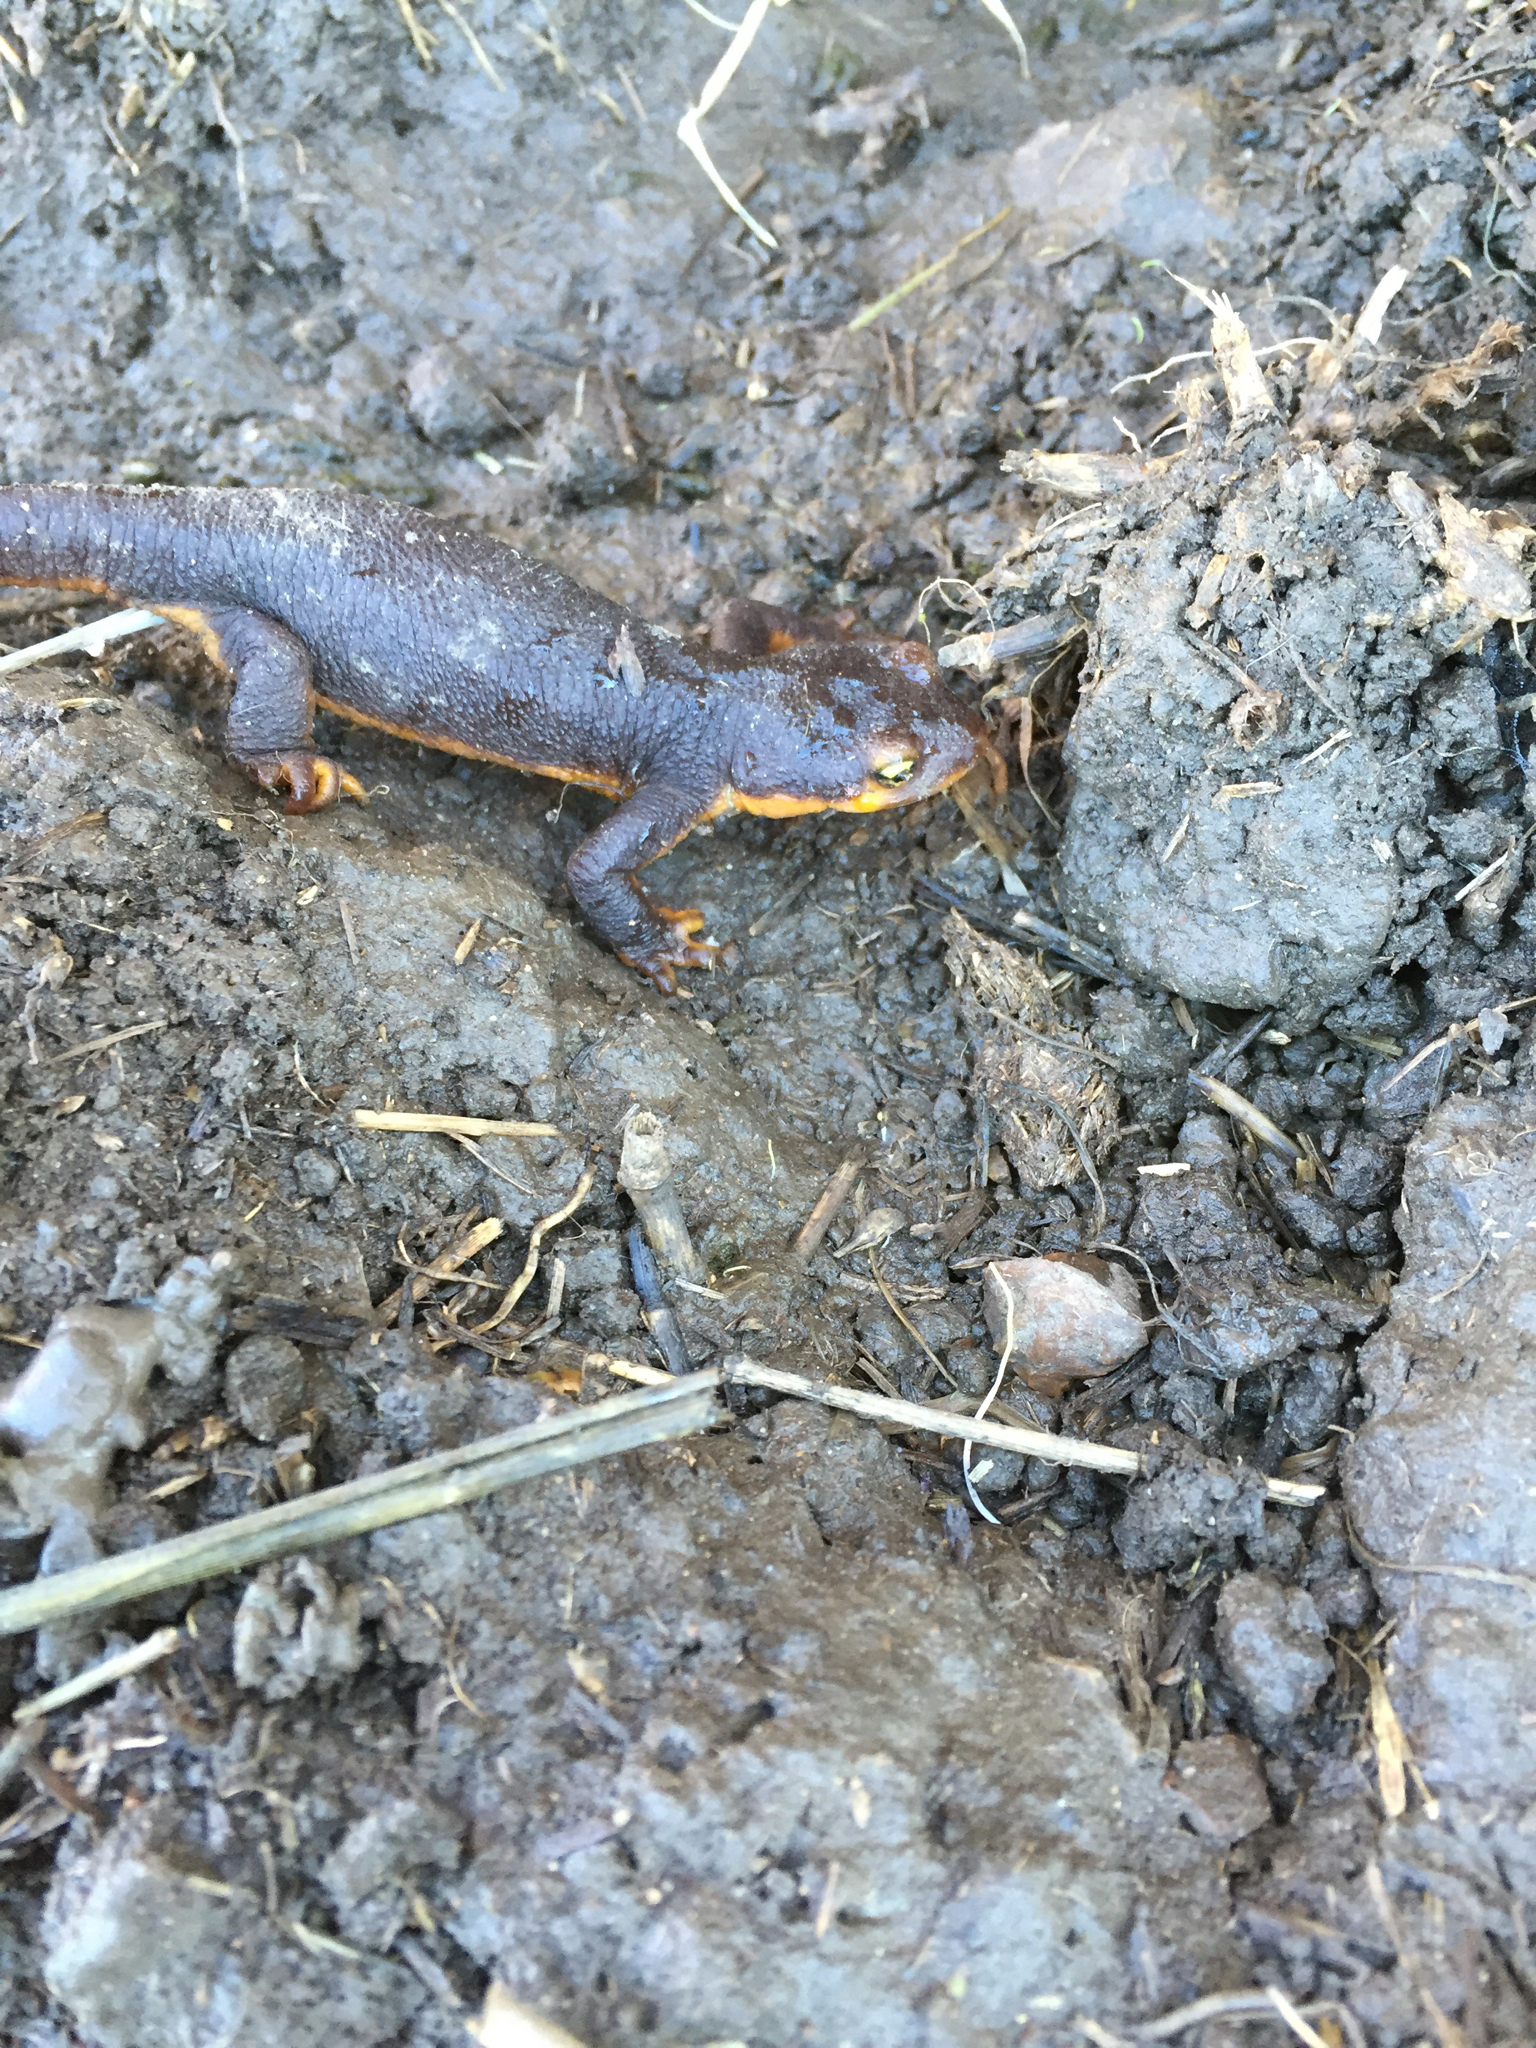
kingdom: Animalia
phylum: Chordata
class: Amphibia
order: Caudata
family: Salamandridae
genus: Taricha
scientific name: Taricha torosa
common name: California newt
